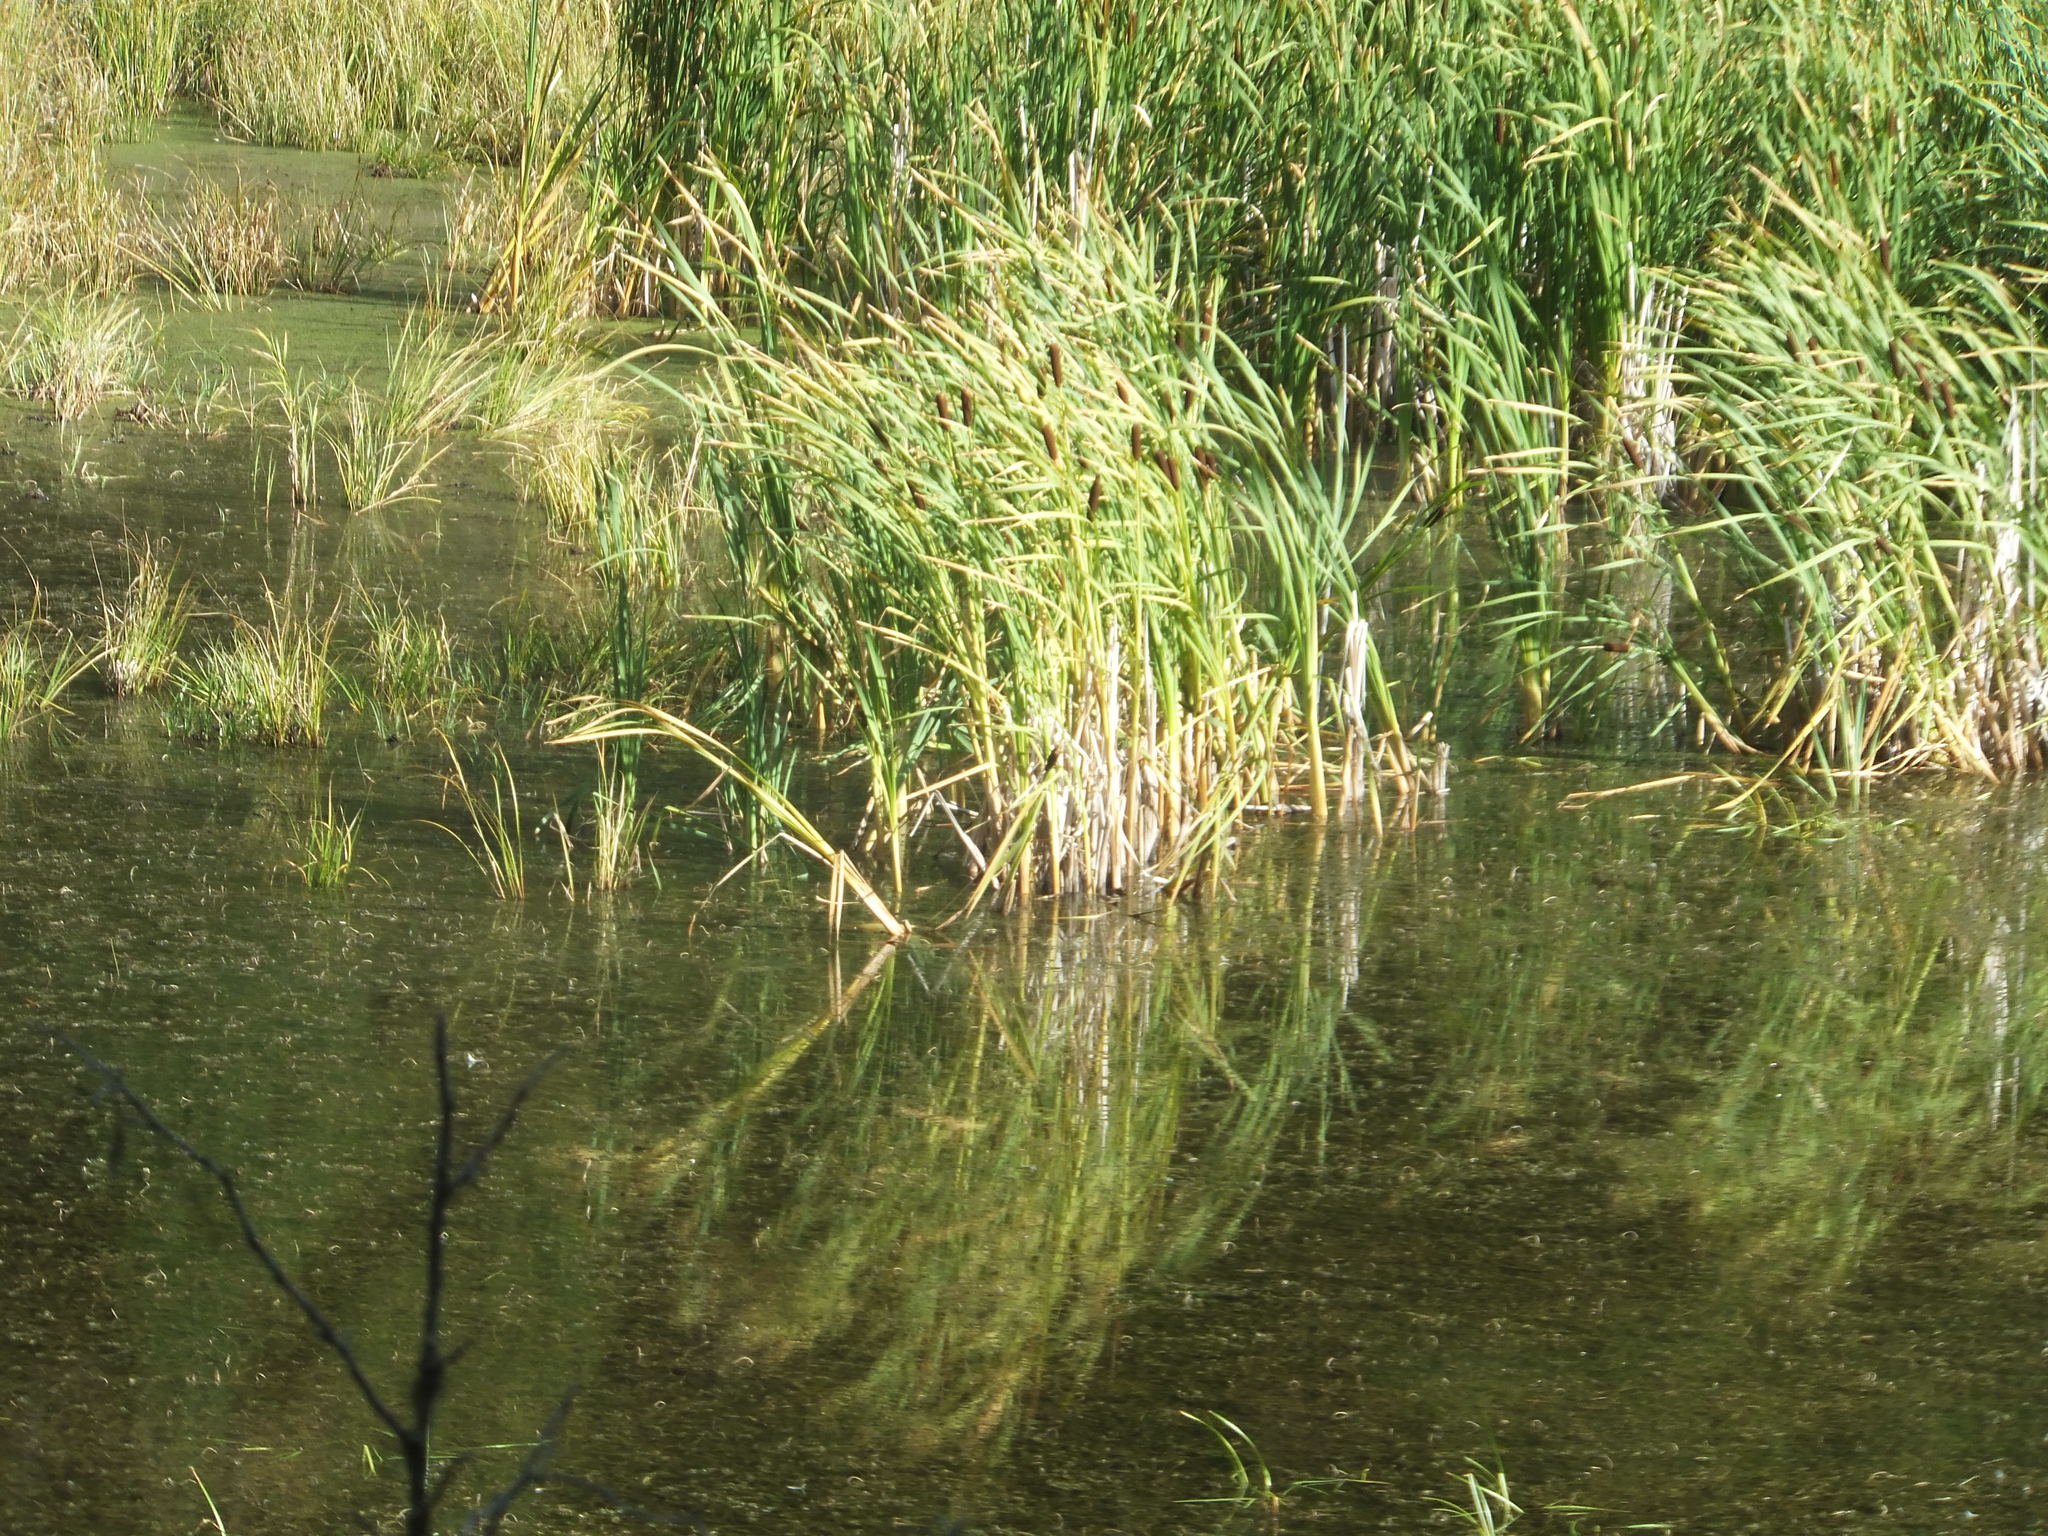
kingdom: Plantae
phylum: Tracheophyta
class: Liliopsida
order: Poales
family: Typhaceae
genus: Typha
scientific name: Typha latifolia
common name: Broadleaf cattail
